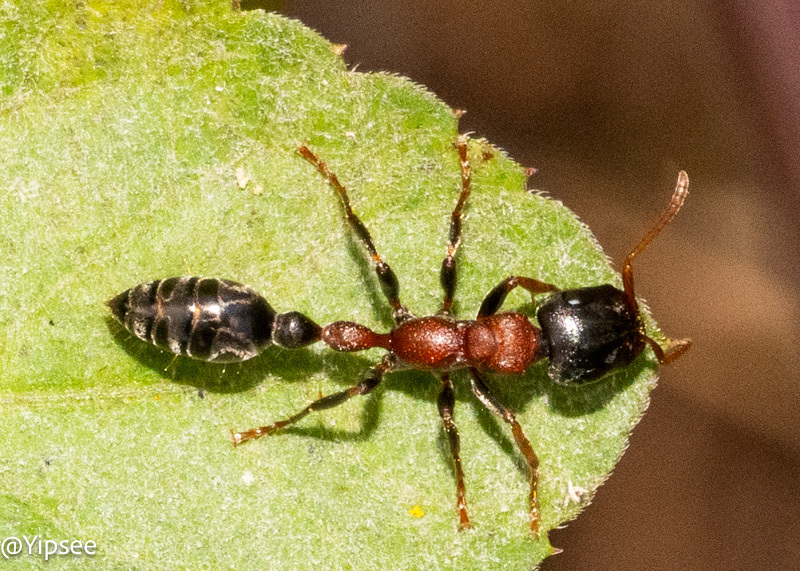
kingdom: Animalia
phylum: Arthropoda
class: Insecta
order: Hymenoptera
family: Formicidae
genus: Tetraponera
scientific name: Tetraponera rufonigra
